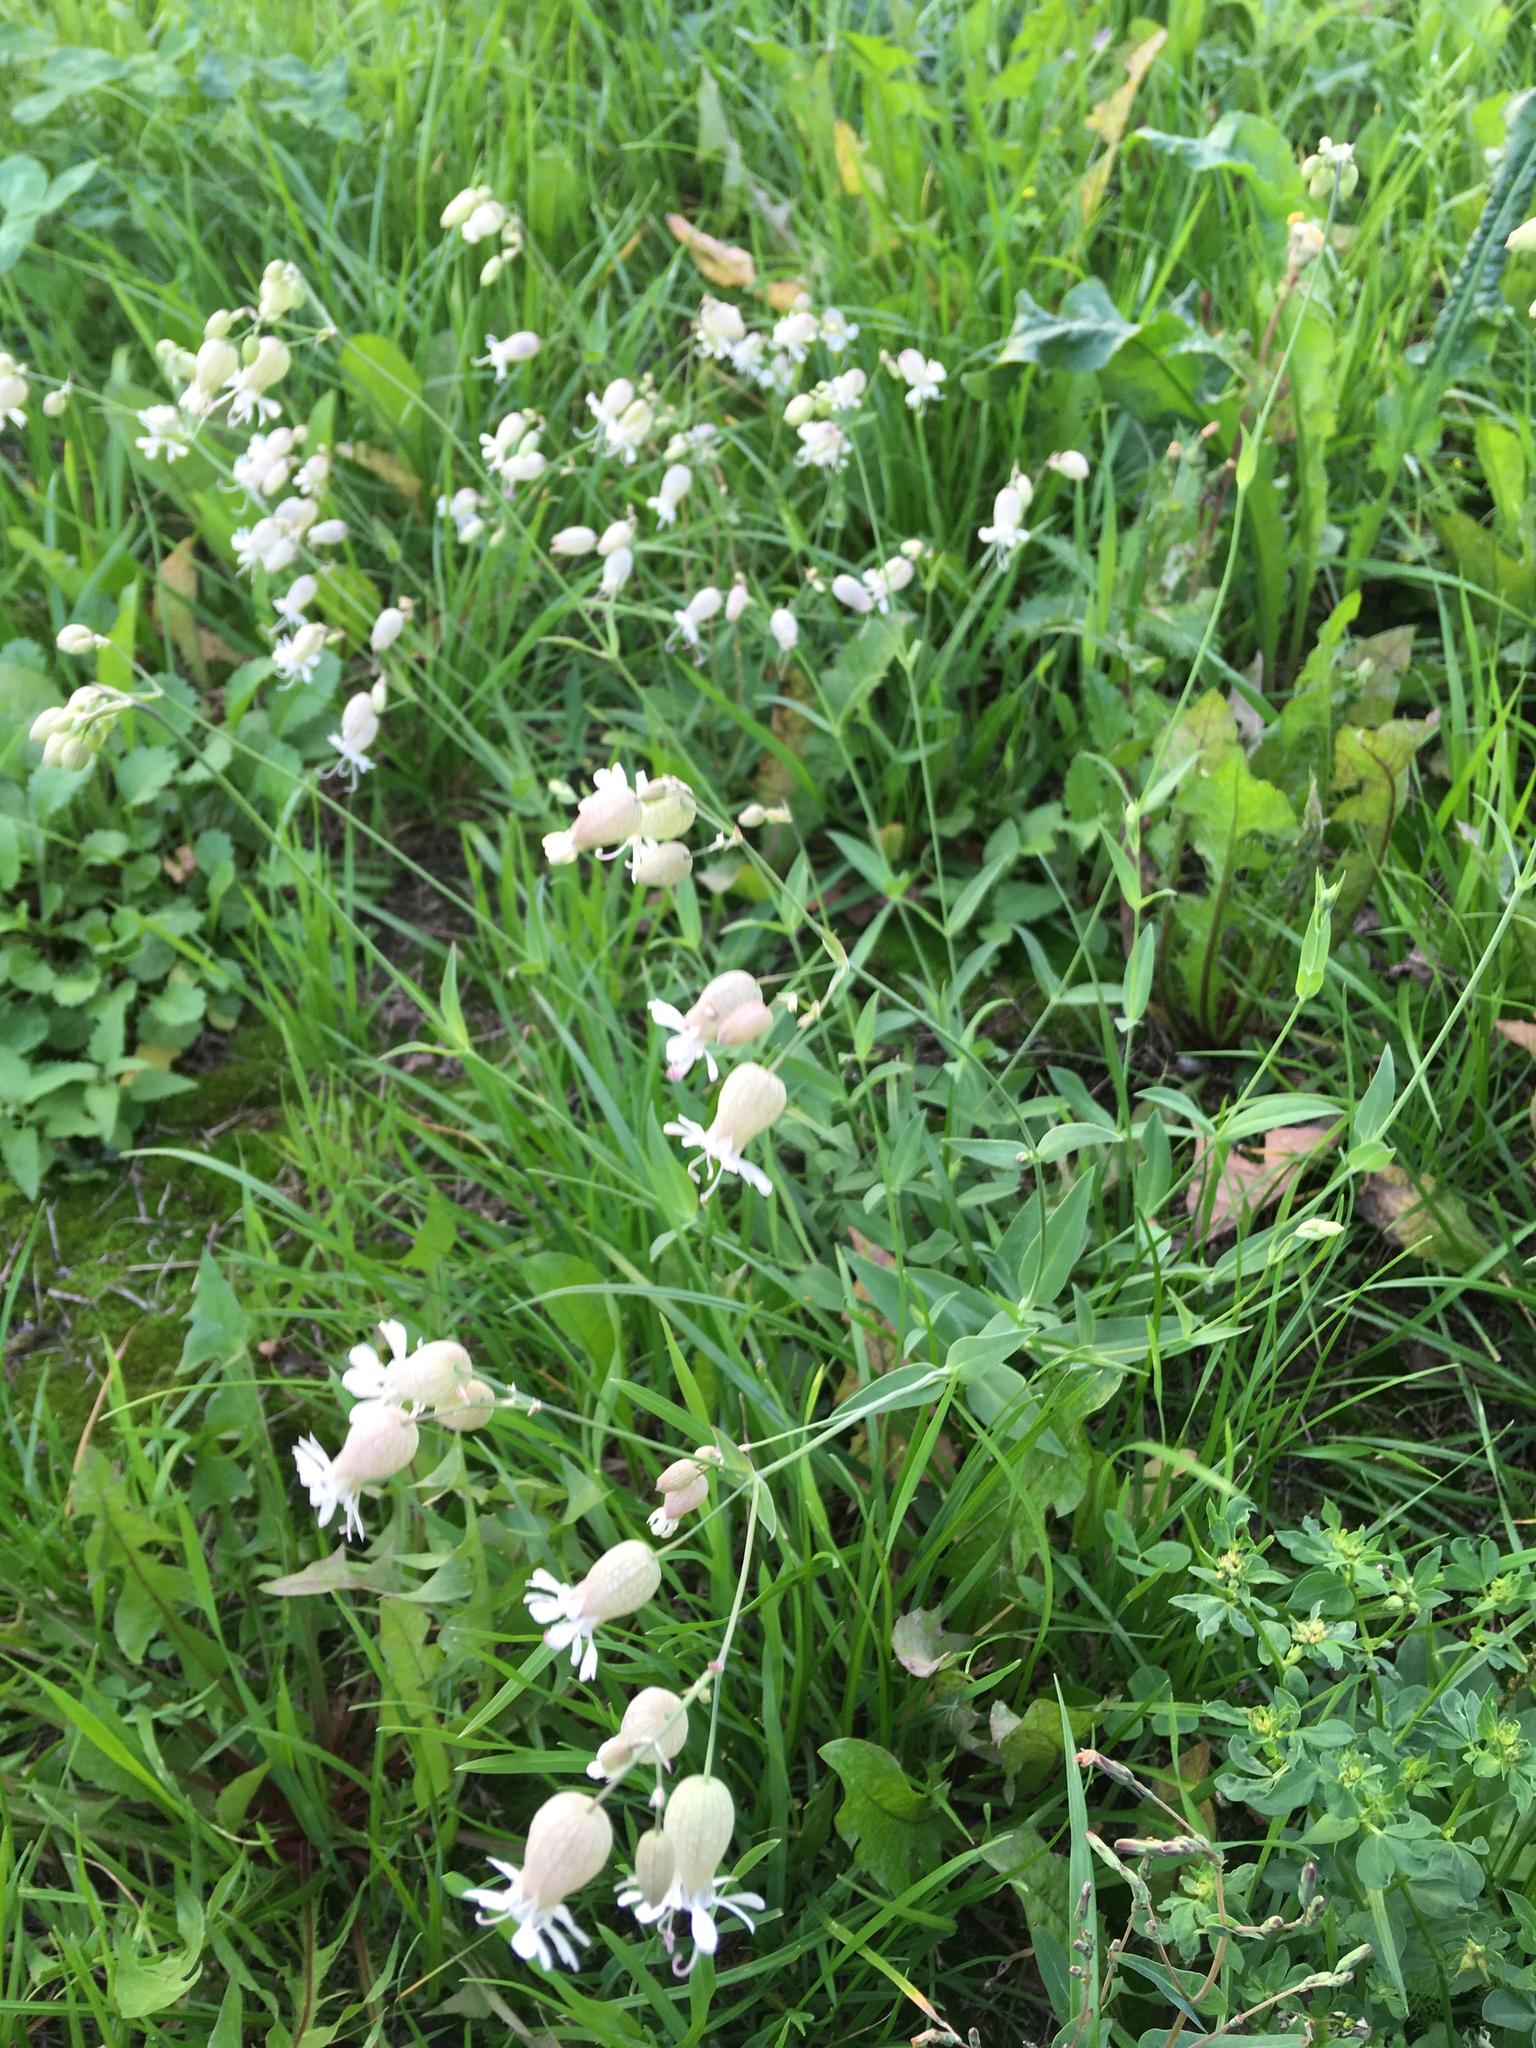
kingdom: Plantae
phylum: Tracheophyta
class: Magnoliopsida
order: Caryophyllales
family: Caryophyllaceae
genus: Silene
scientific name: Silene vulgaris
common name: Bladder campion
